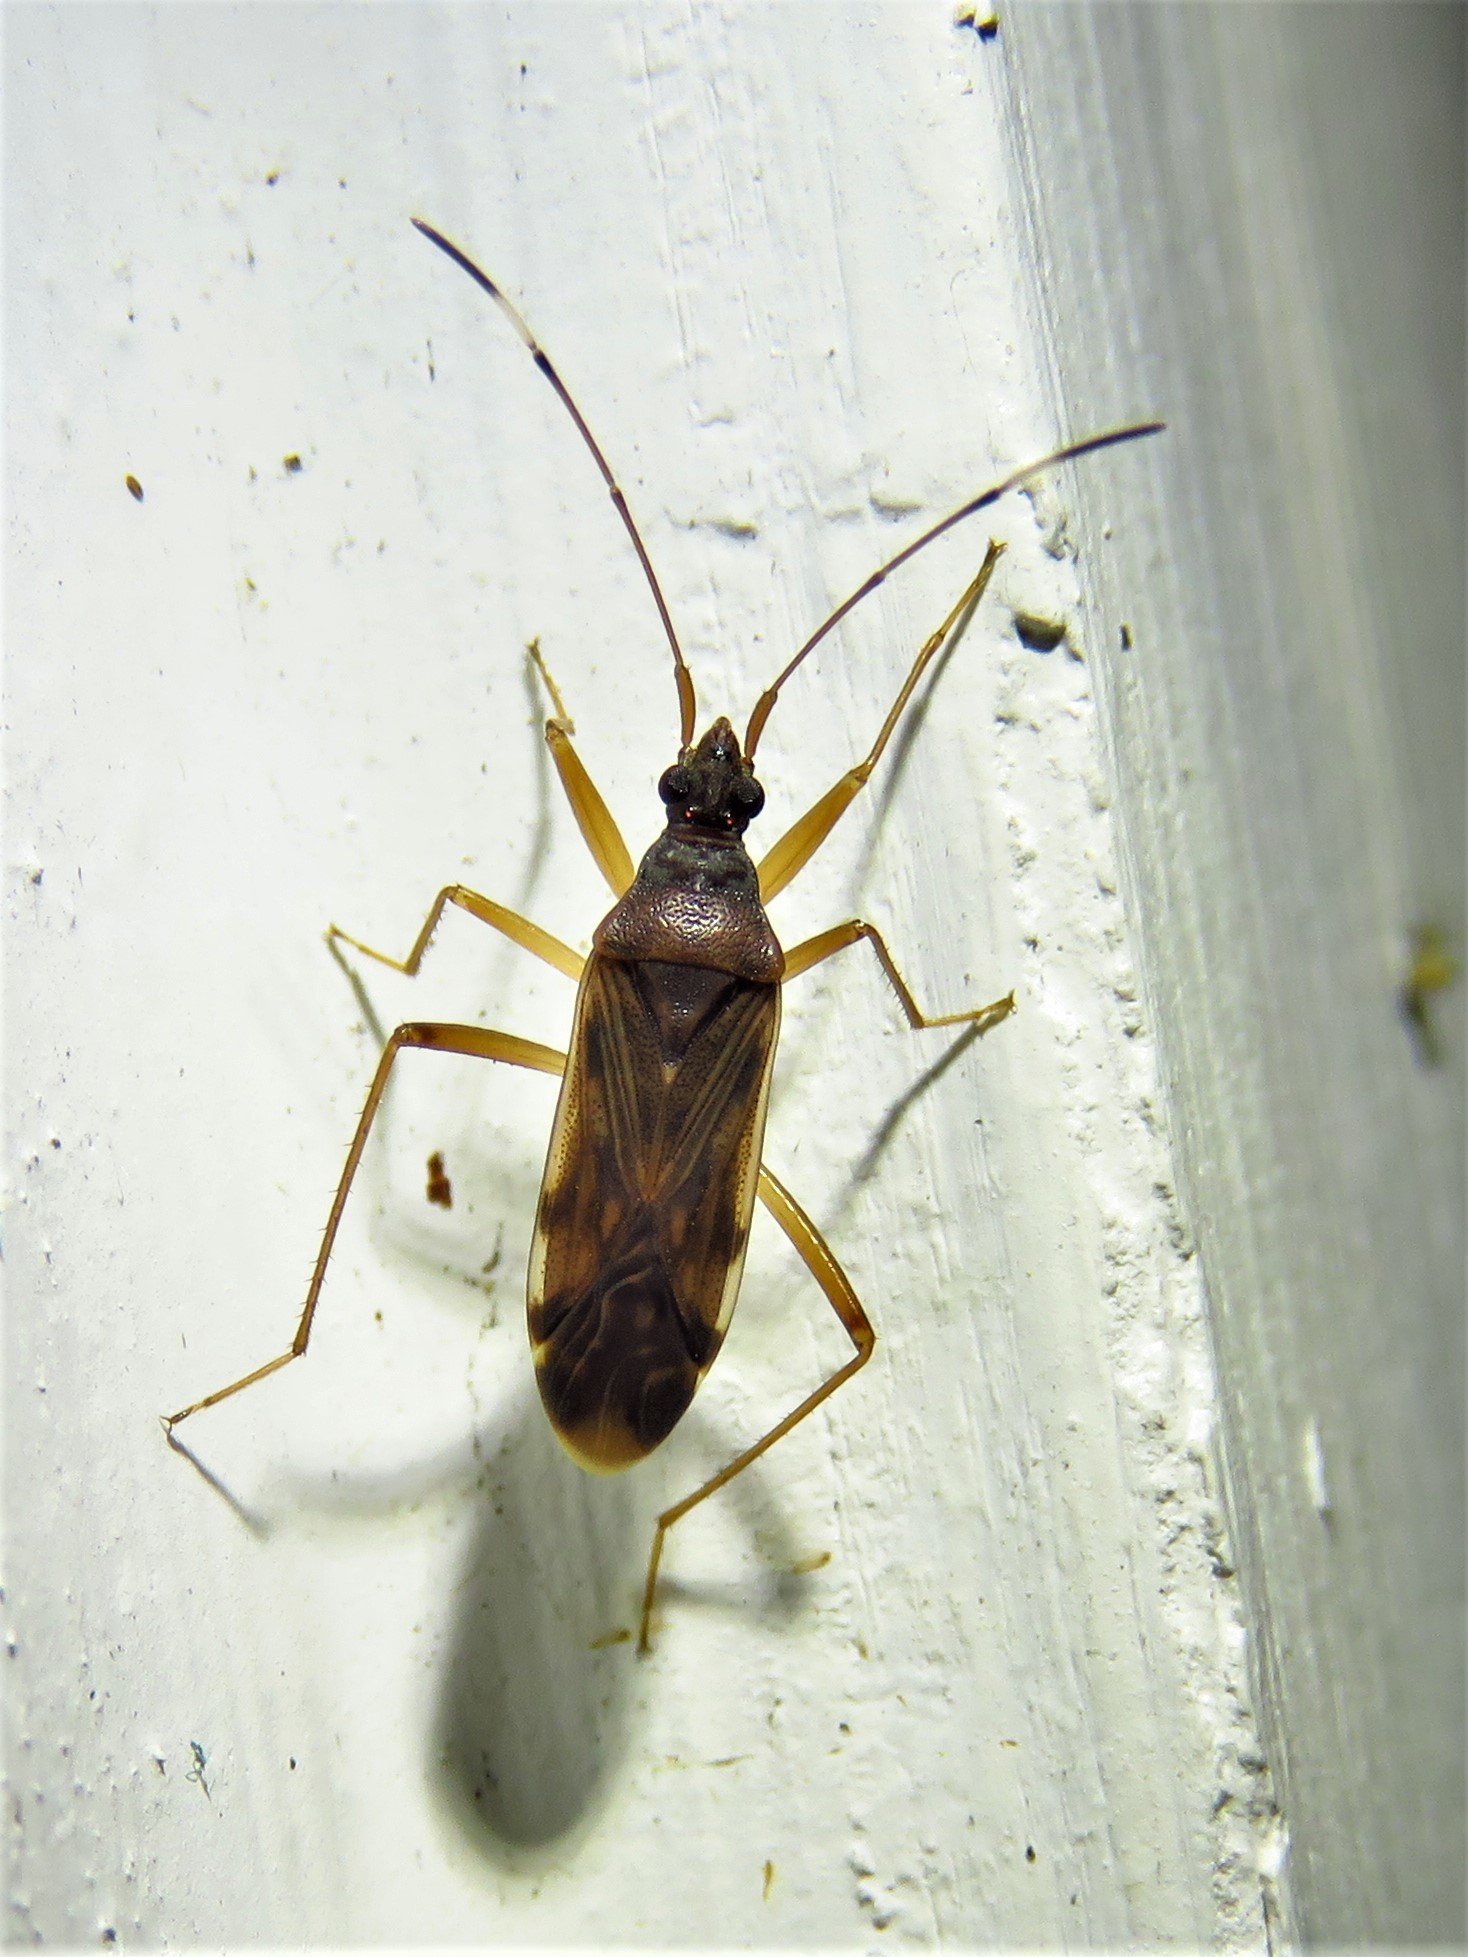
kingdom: Animalia
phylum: Arthropoda
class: Insecta
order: Hemiptera
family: Rhyparochromidae
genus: Ozophora
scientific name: Ozophora depicturata
